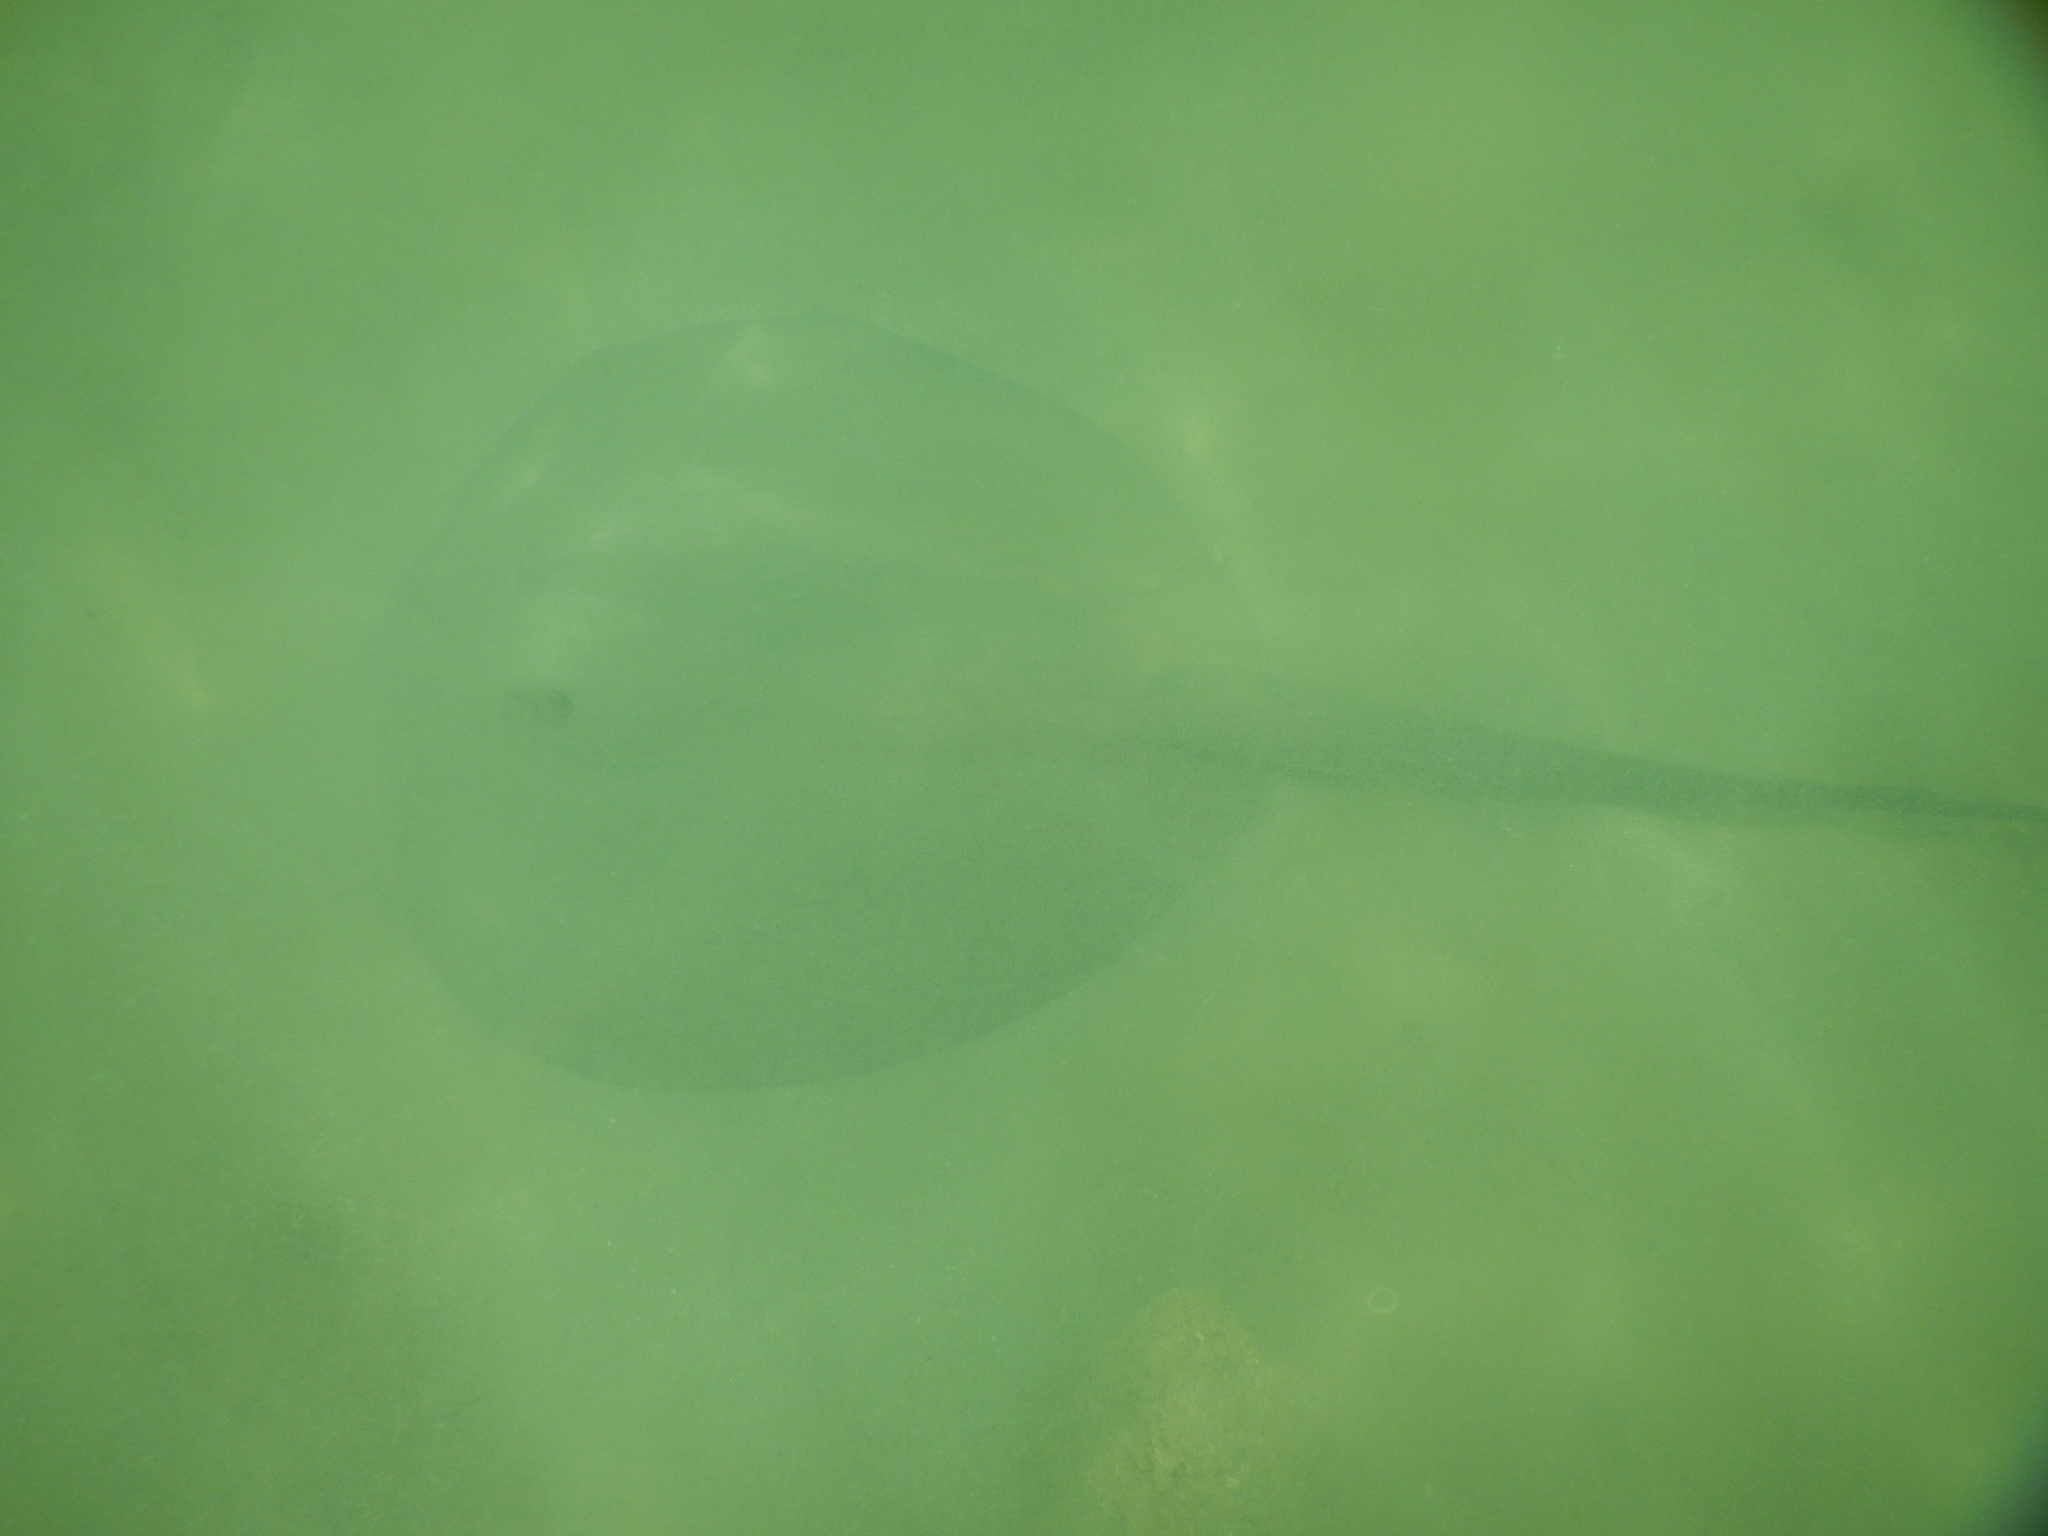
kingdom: Animalia
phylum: Chordata
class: Elasmobranchii
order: Myliobatiformes
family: Potamotrygonidae
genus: Styracura
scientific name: Styracura schmardae
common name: Atlantic chupare
